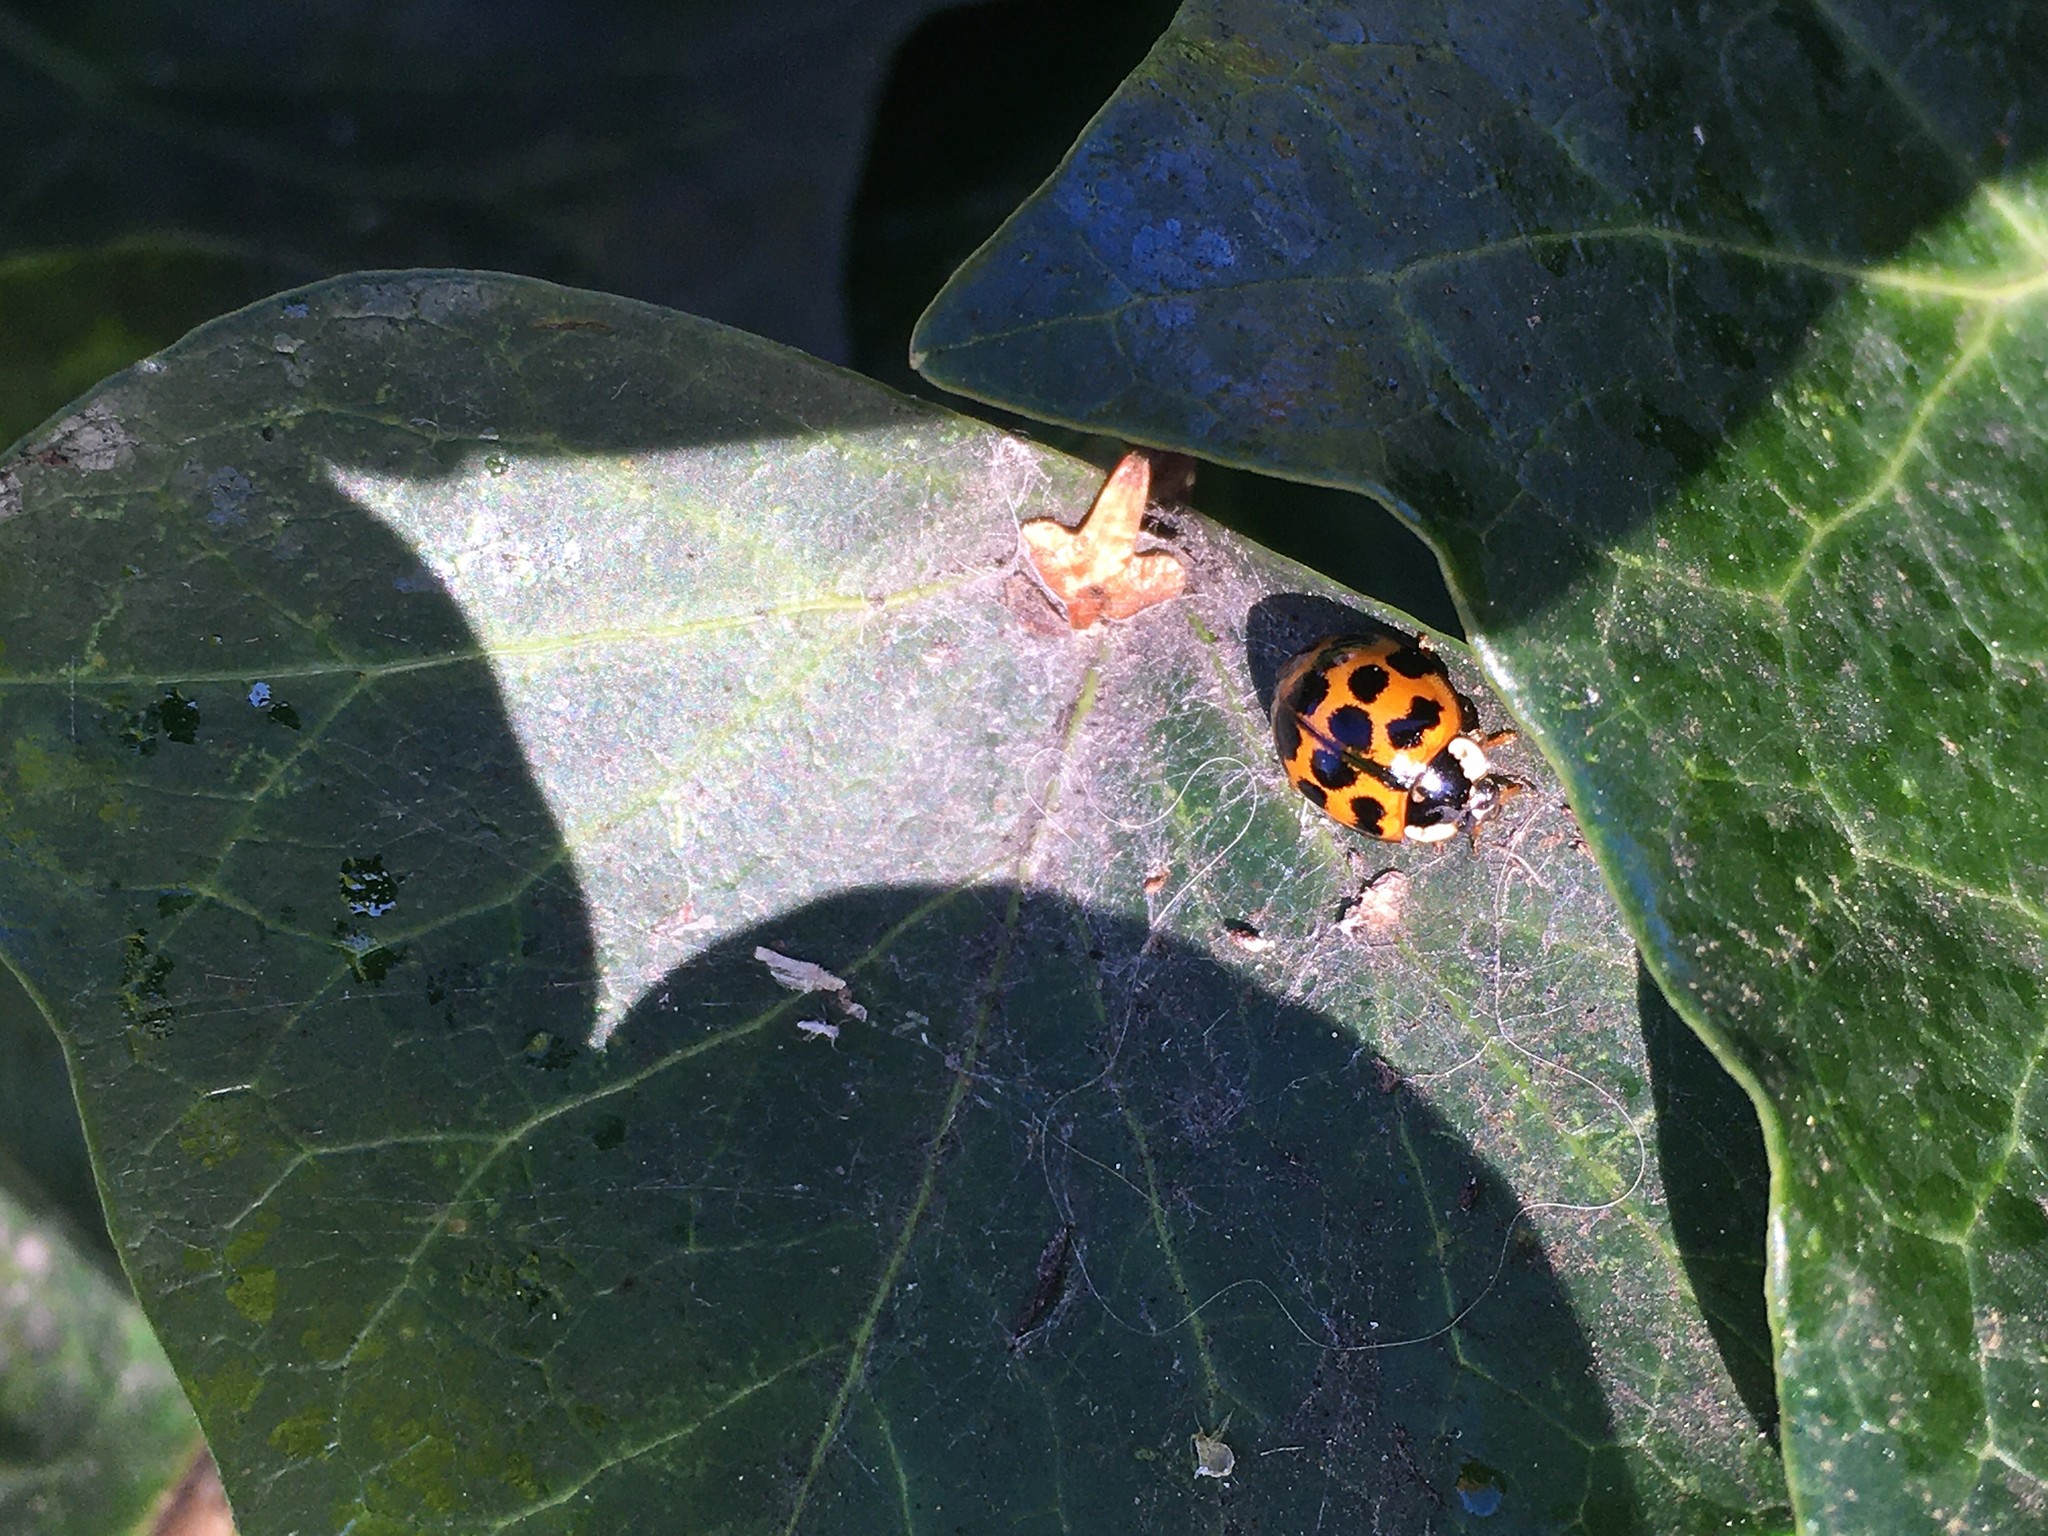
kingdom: Animalia
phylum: Arthropoda
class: Insecta
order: Coleoptera
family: Coccinellidae
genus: Harmonia
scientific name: Harmonia axyridis
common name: Harlequin ladybird
